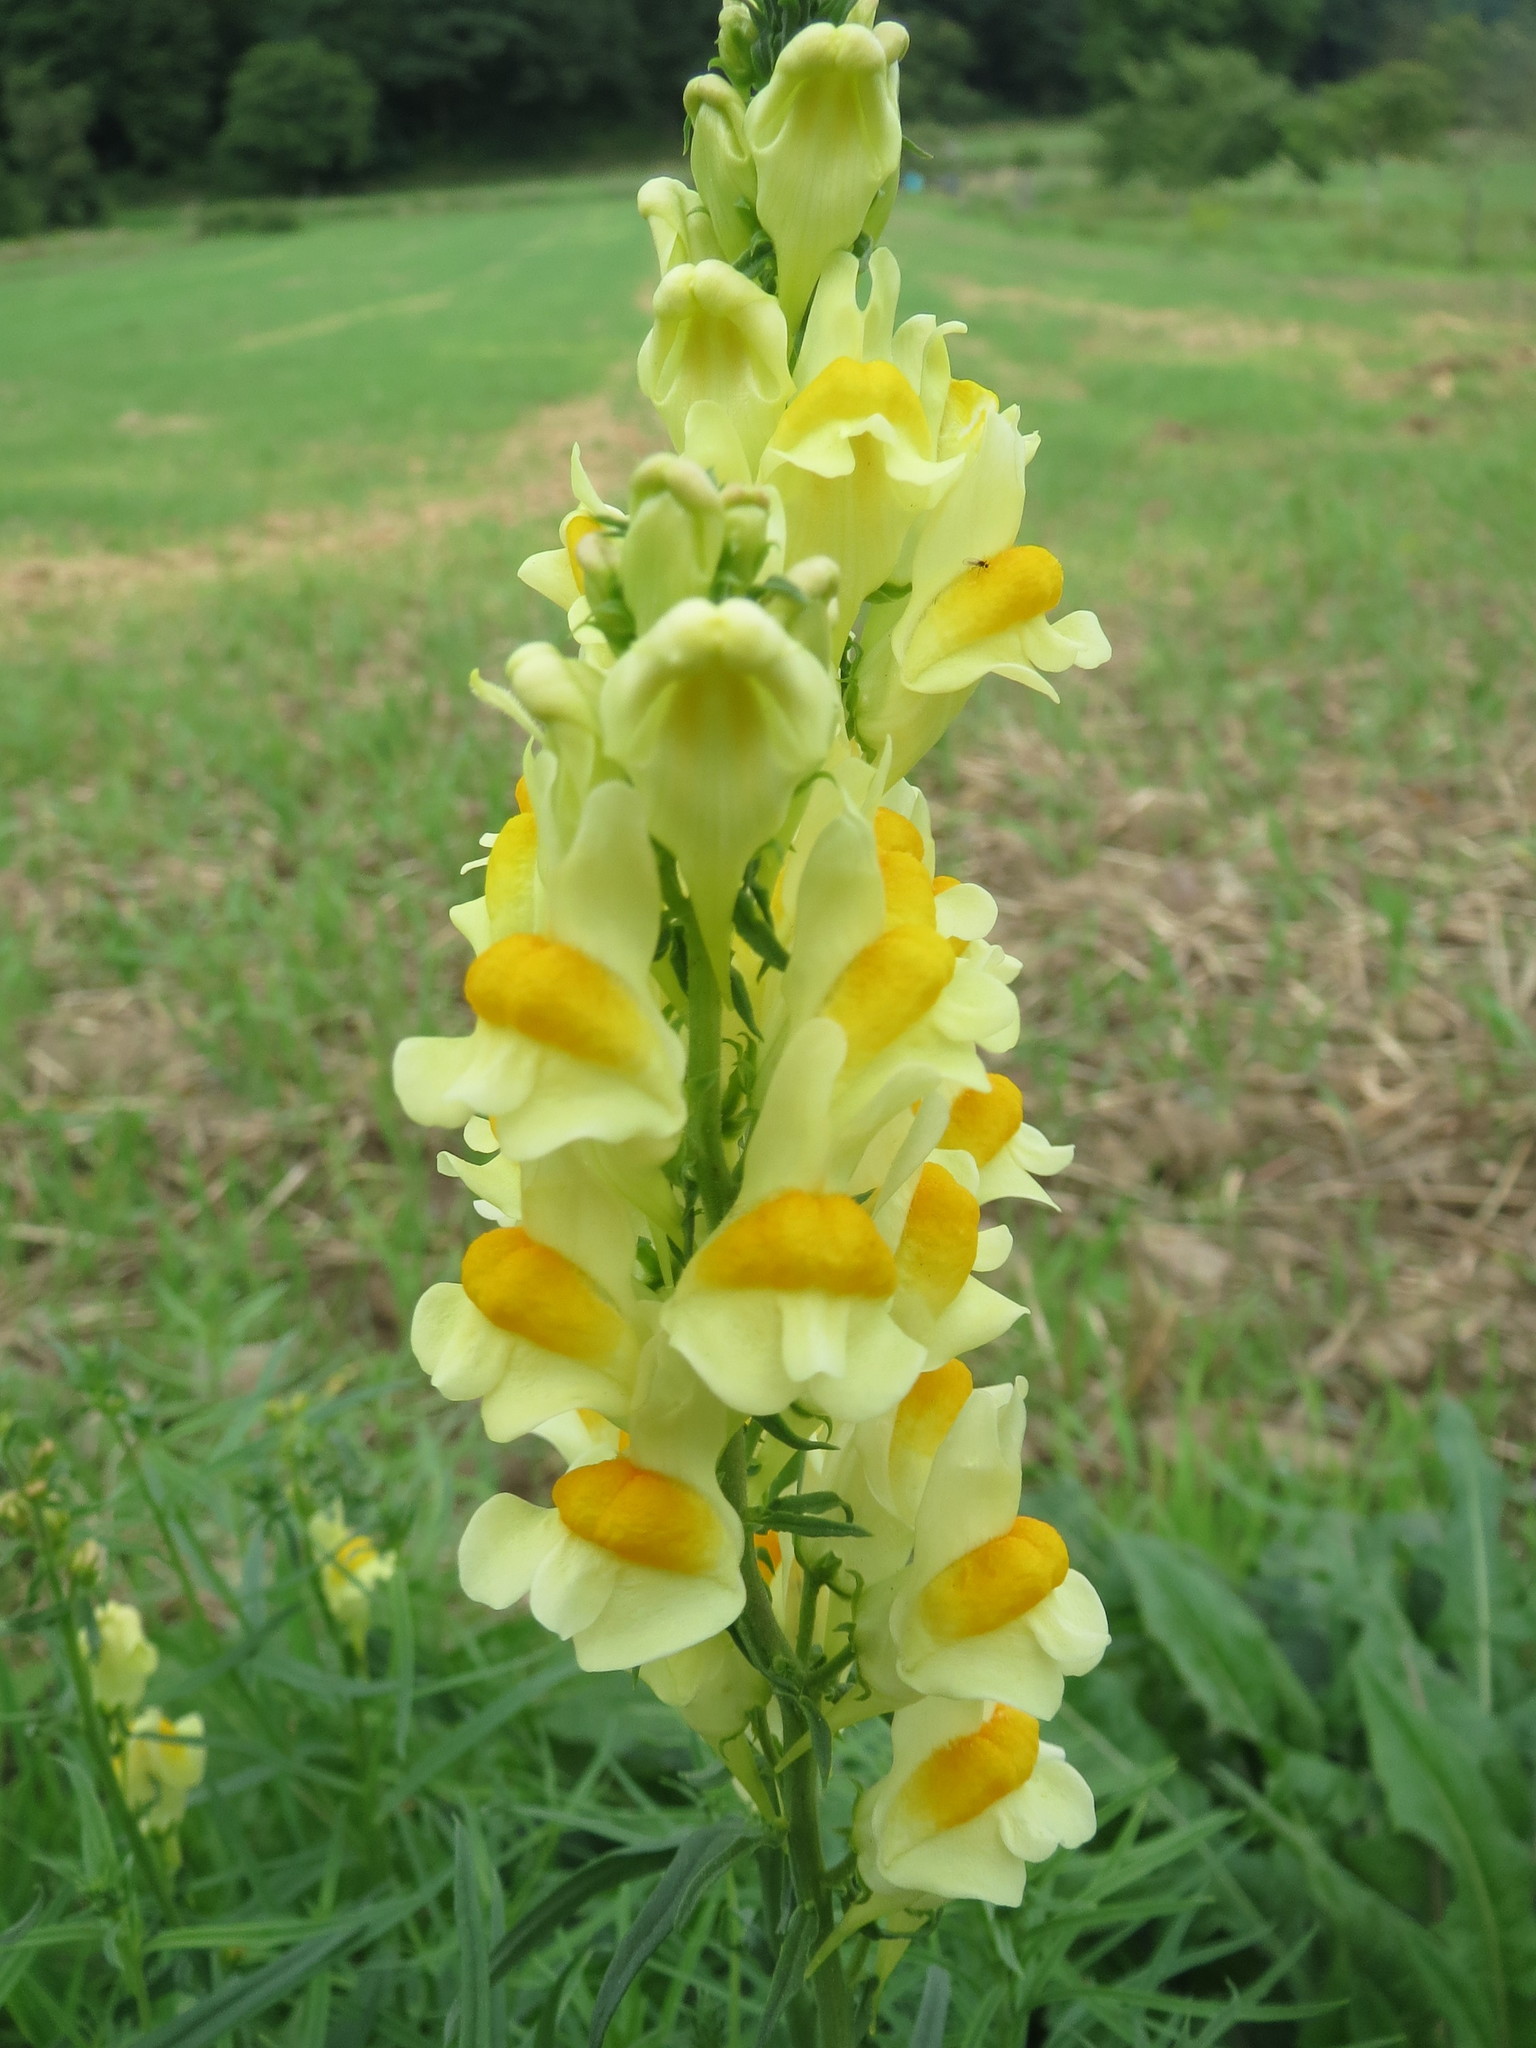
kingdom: Plantae
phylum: Tracheophyta
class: Magnoliopsida
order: Lamiales
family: Plantaginaceae
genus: Linaria
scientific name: Linaria vulgaris
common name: Butter and eggs
